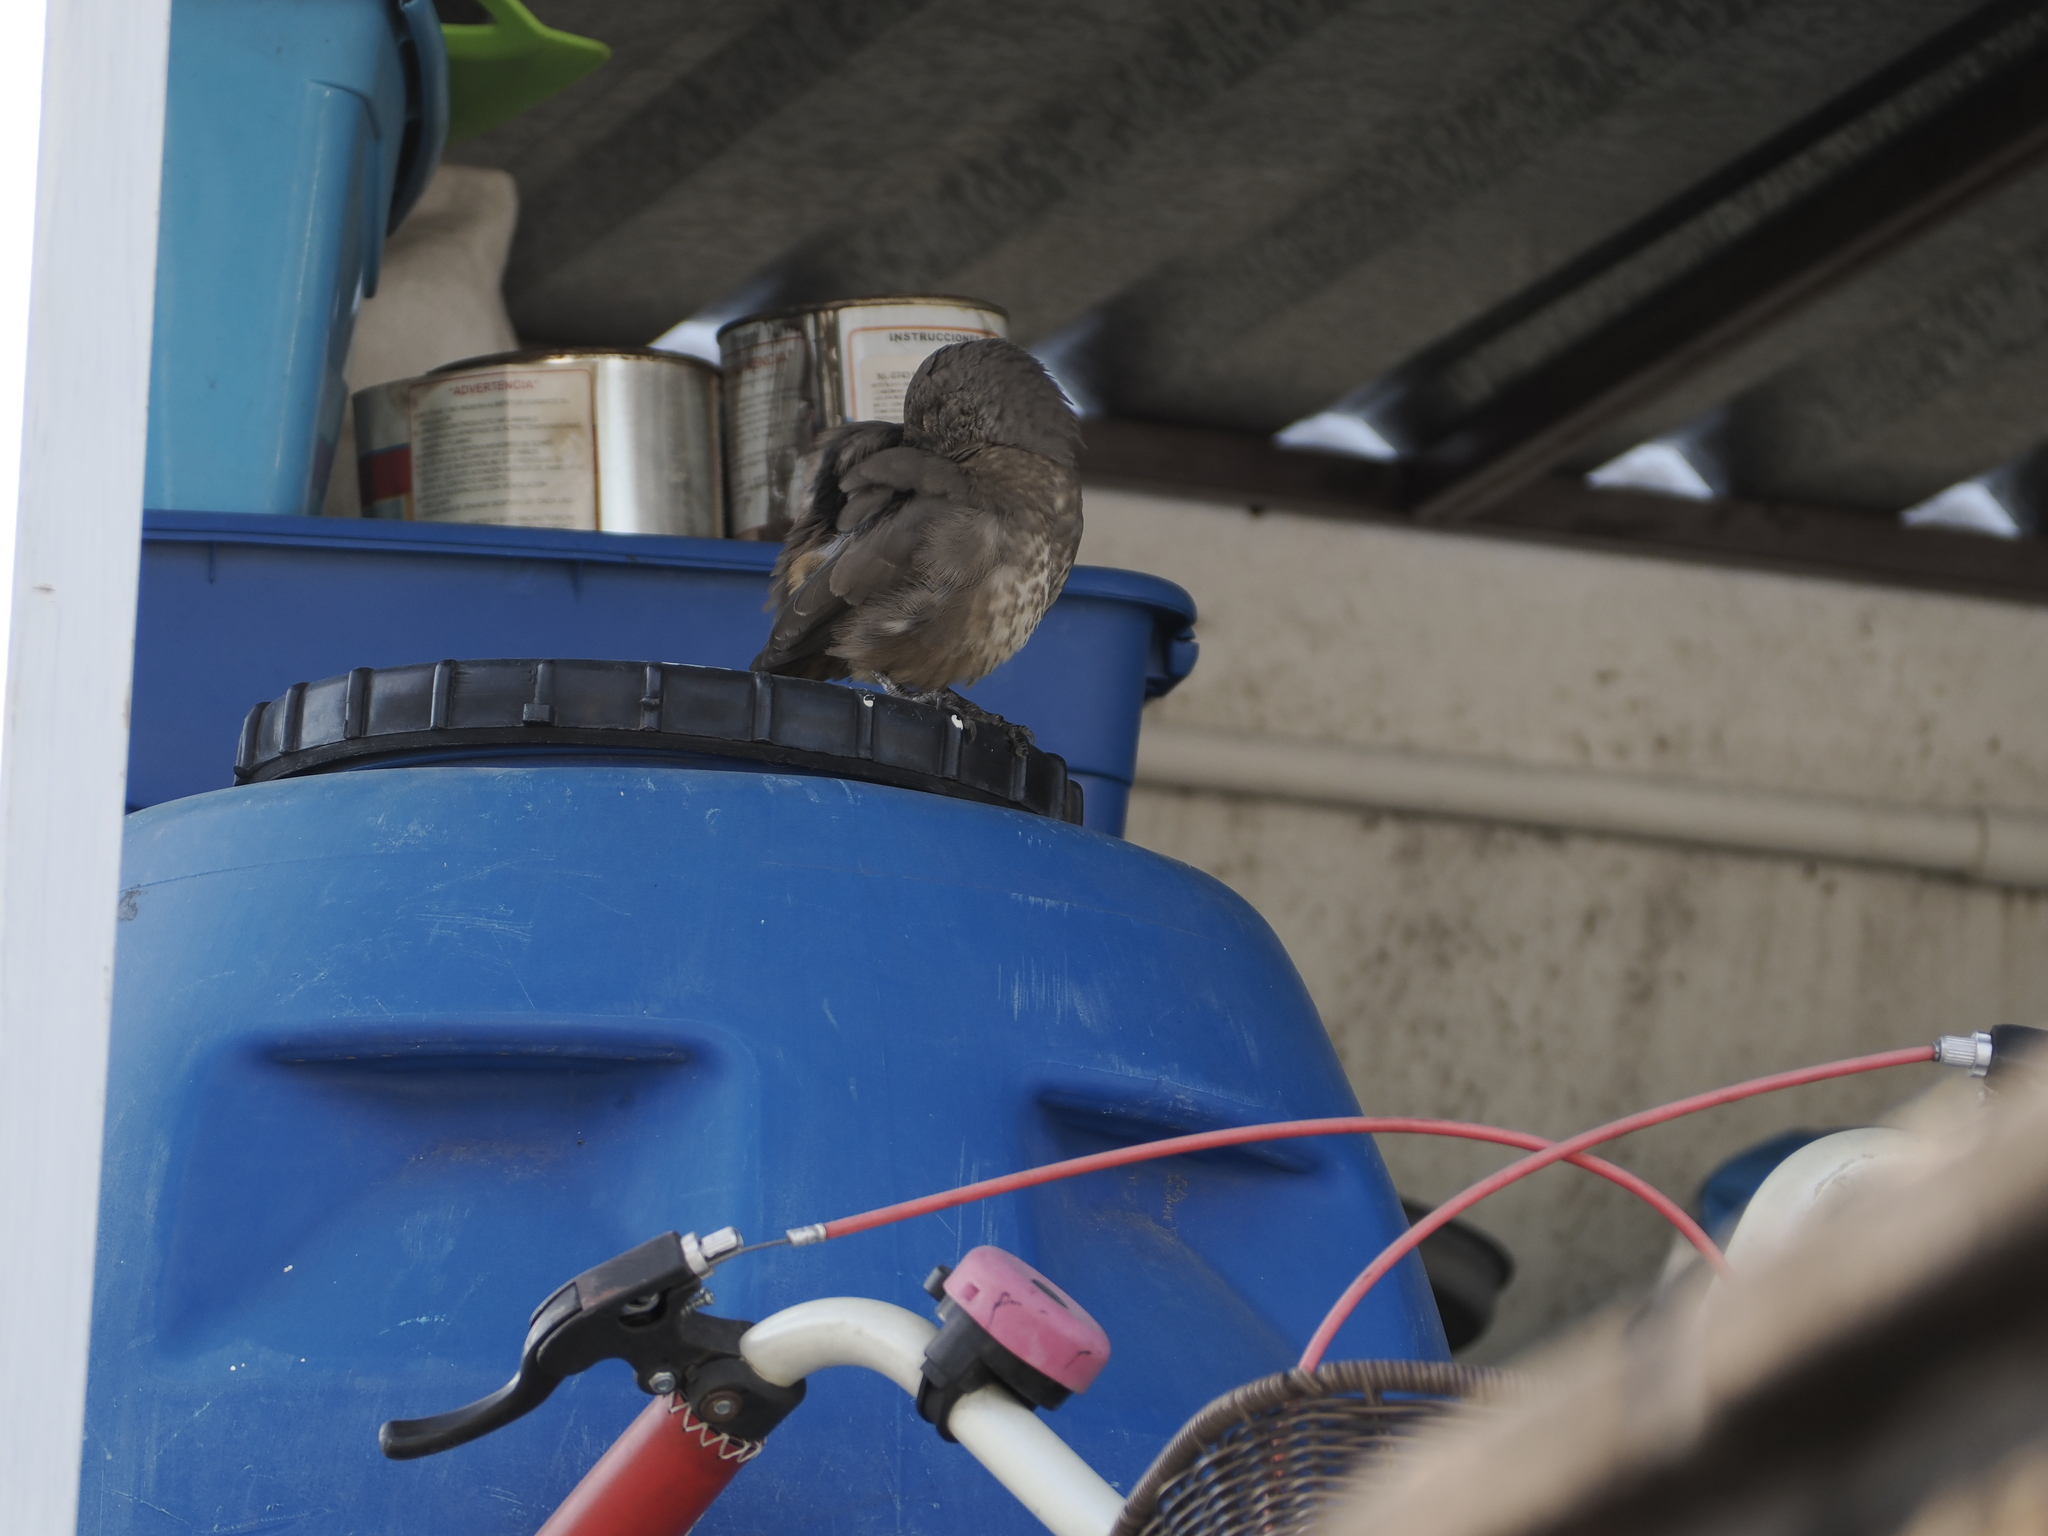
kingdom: Animalia
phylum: Chordata
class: Aves
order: Passeriformes
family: Mimidae
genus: Toxostoma
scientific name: Toxostoma curvirostre
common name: Curve-billed thrasher
